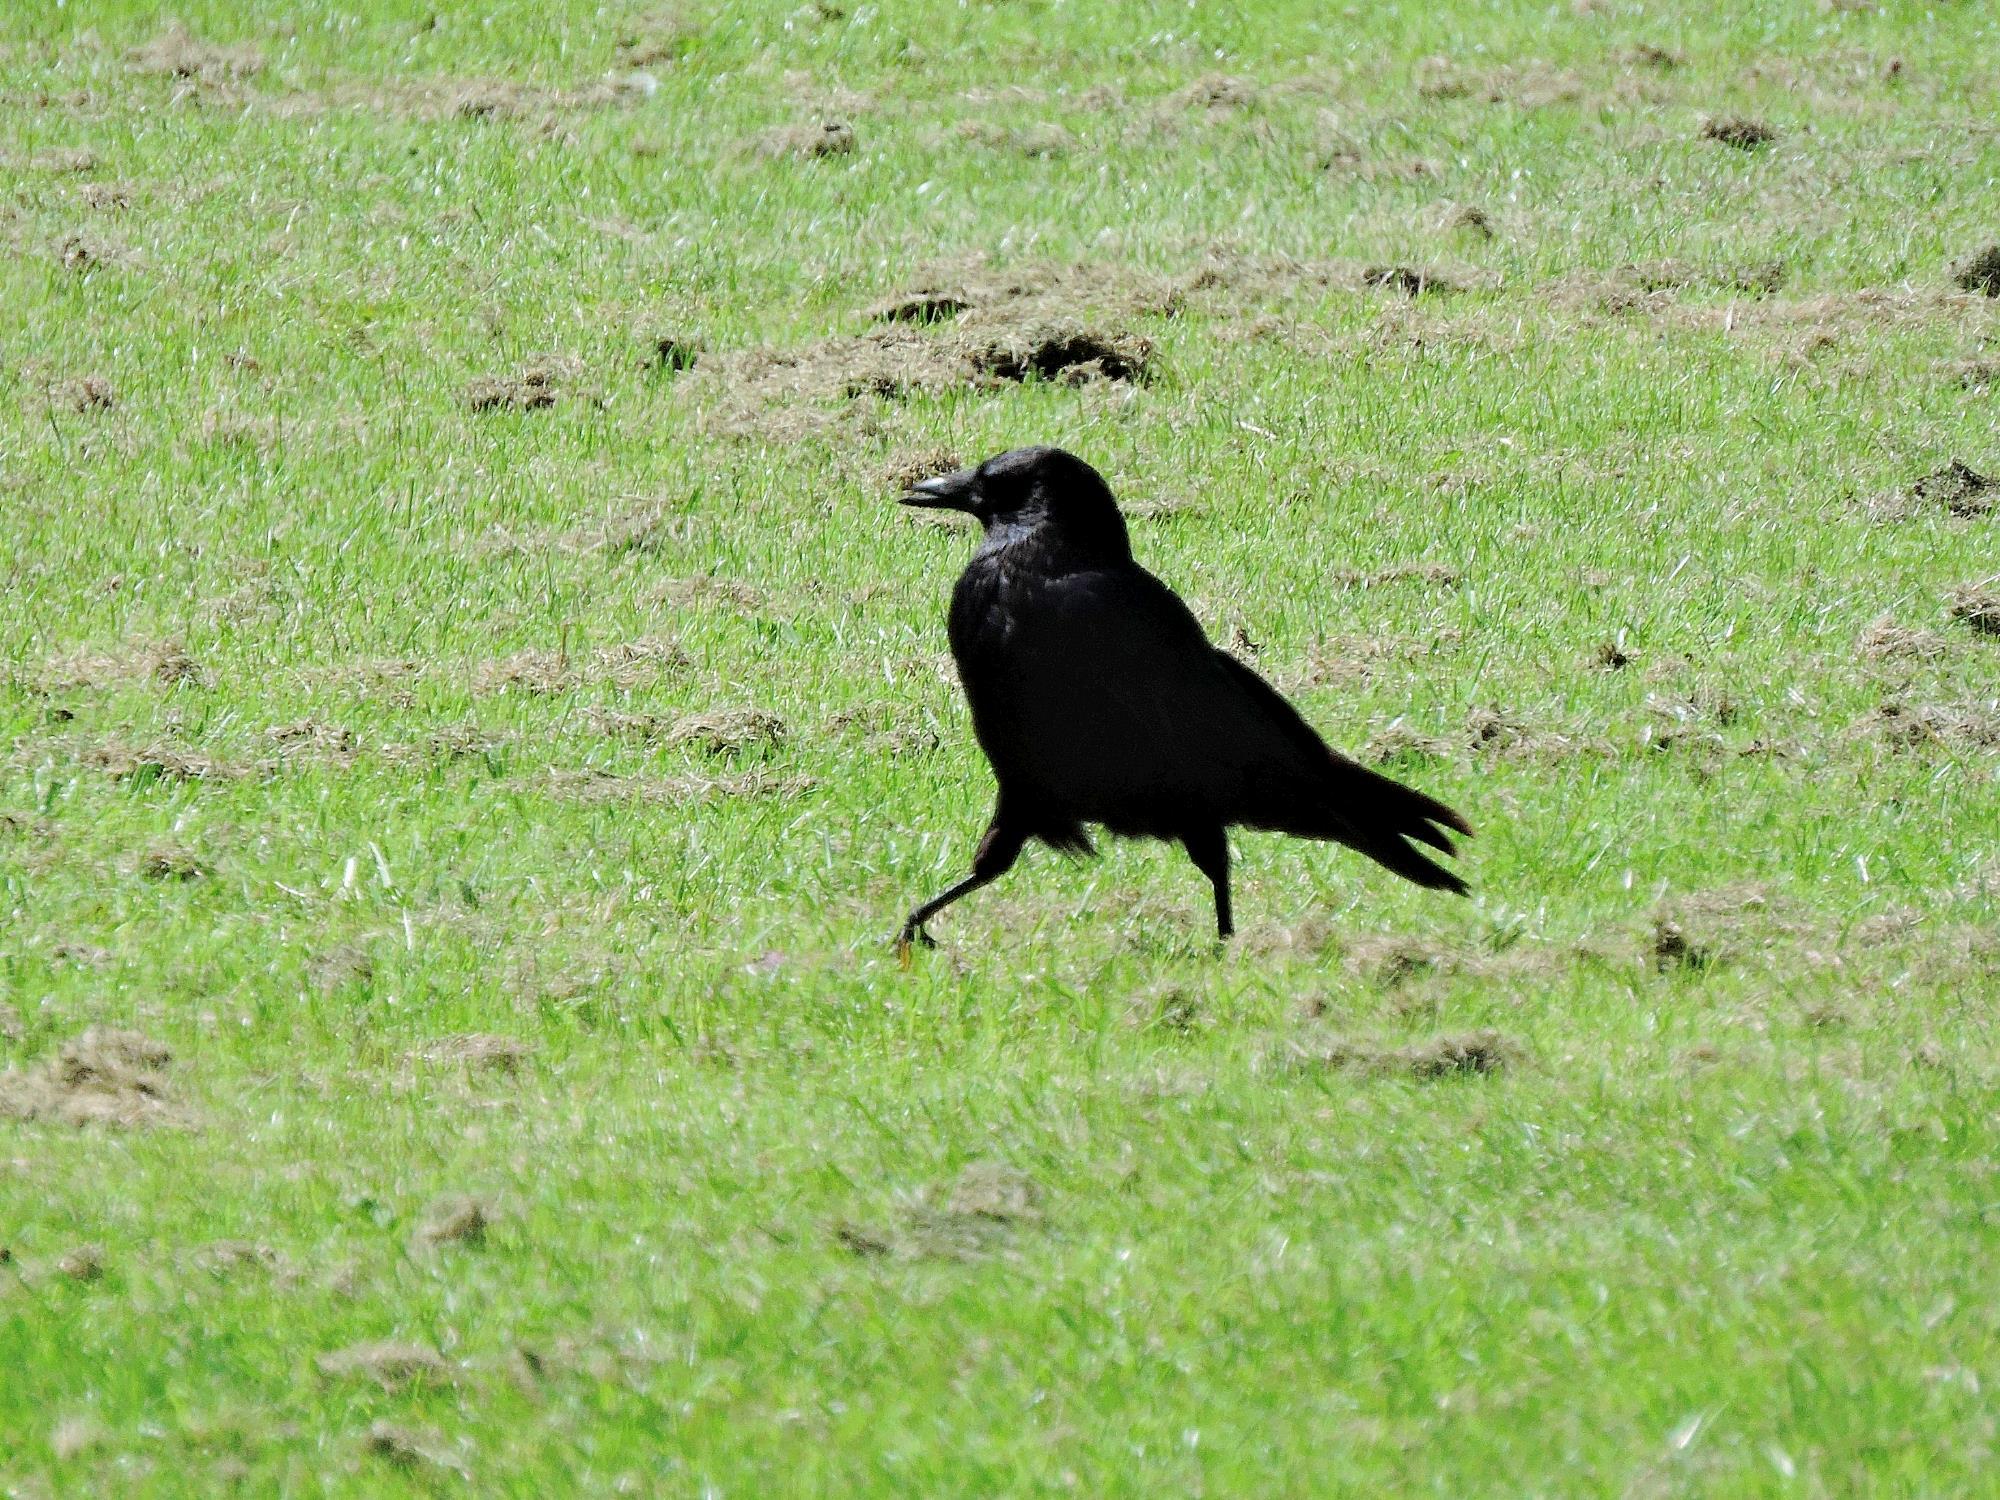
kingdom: Animalia
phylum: Chordata
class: Aves
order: Passeriformes
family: Corvidae
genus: Corvus
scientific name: Corvus corone
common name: Carrion crow
